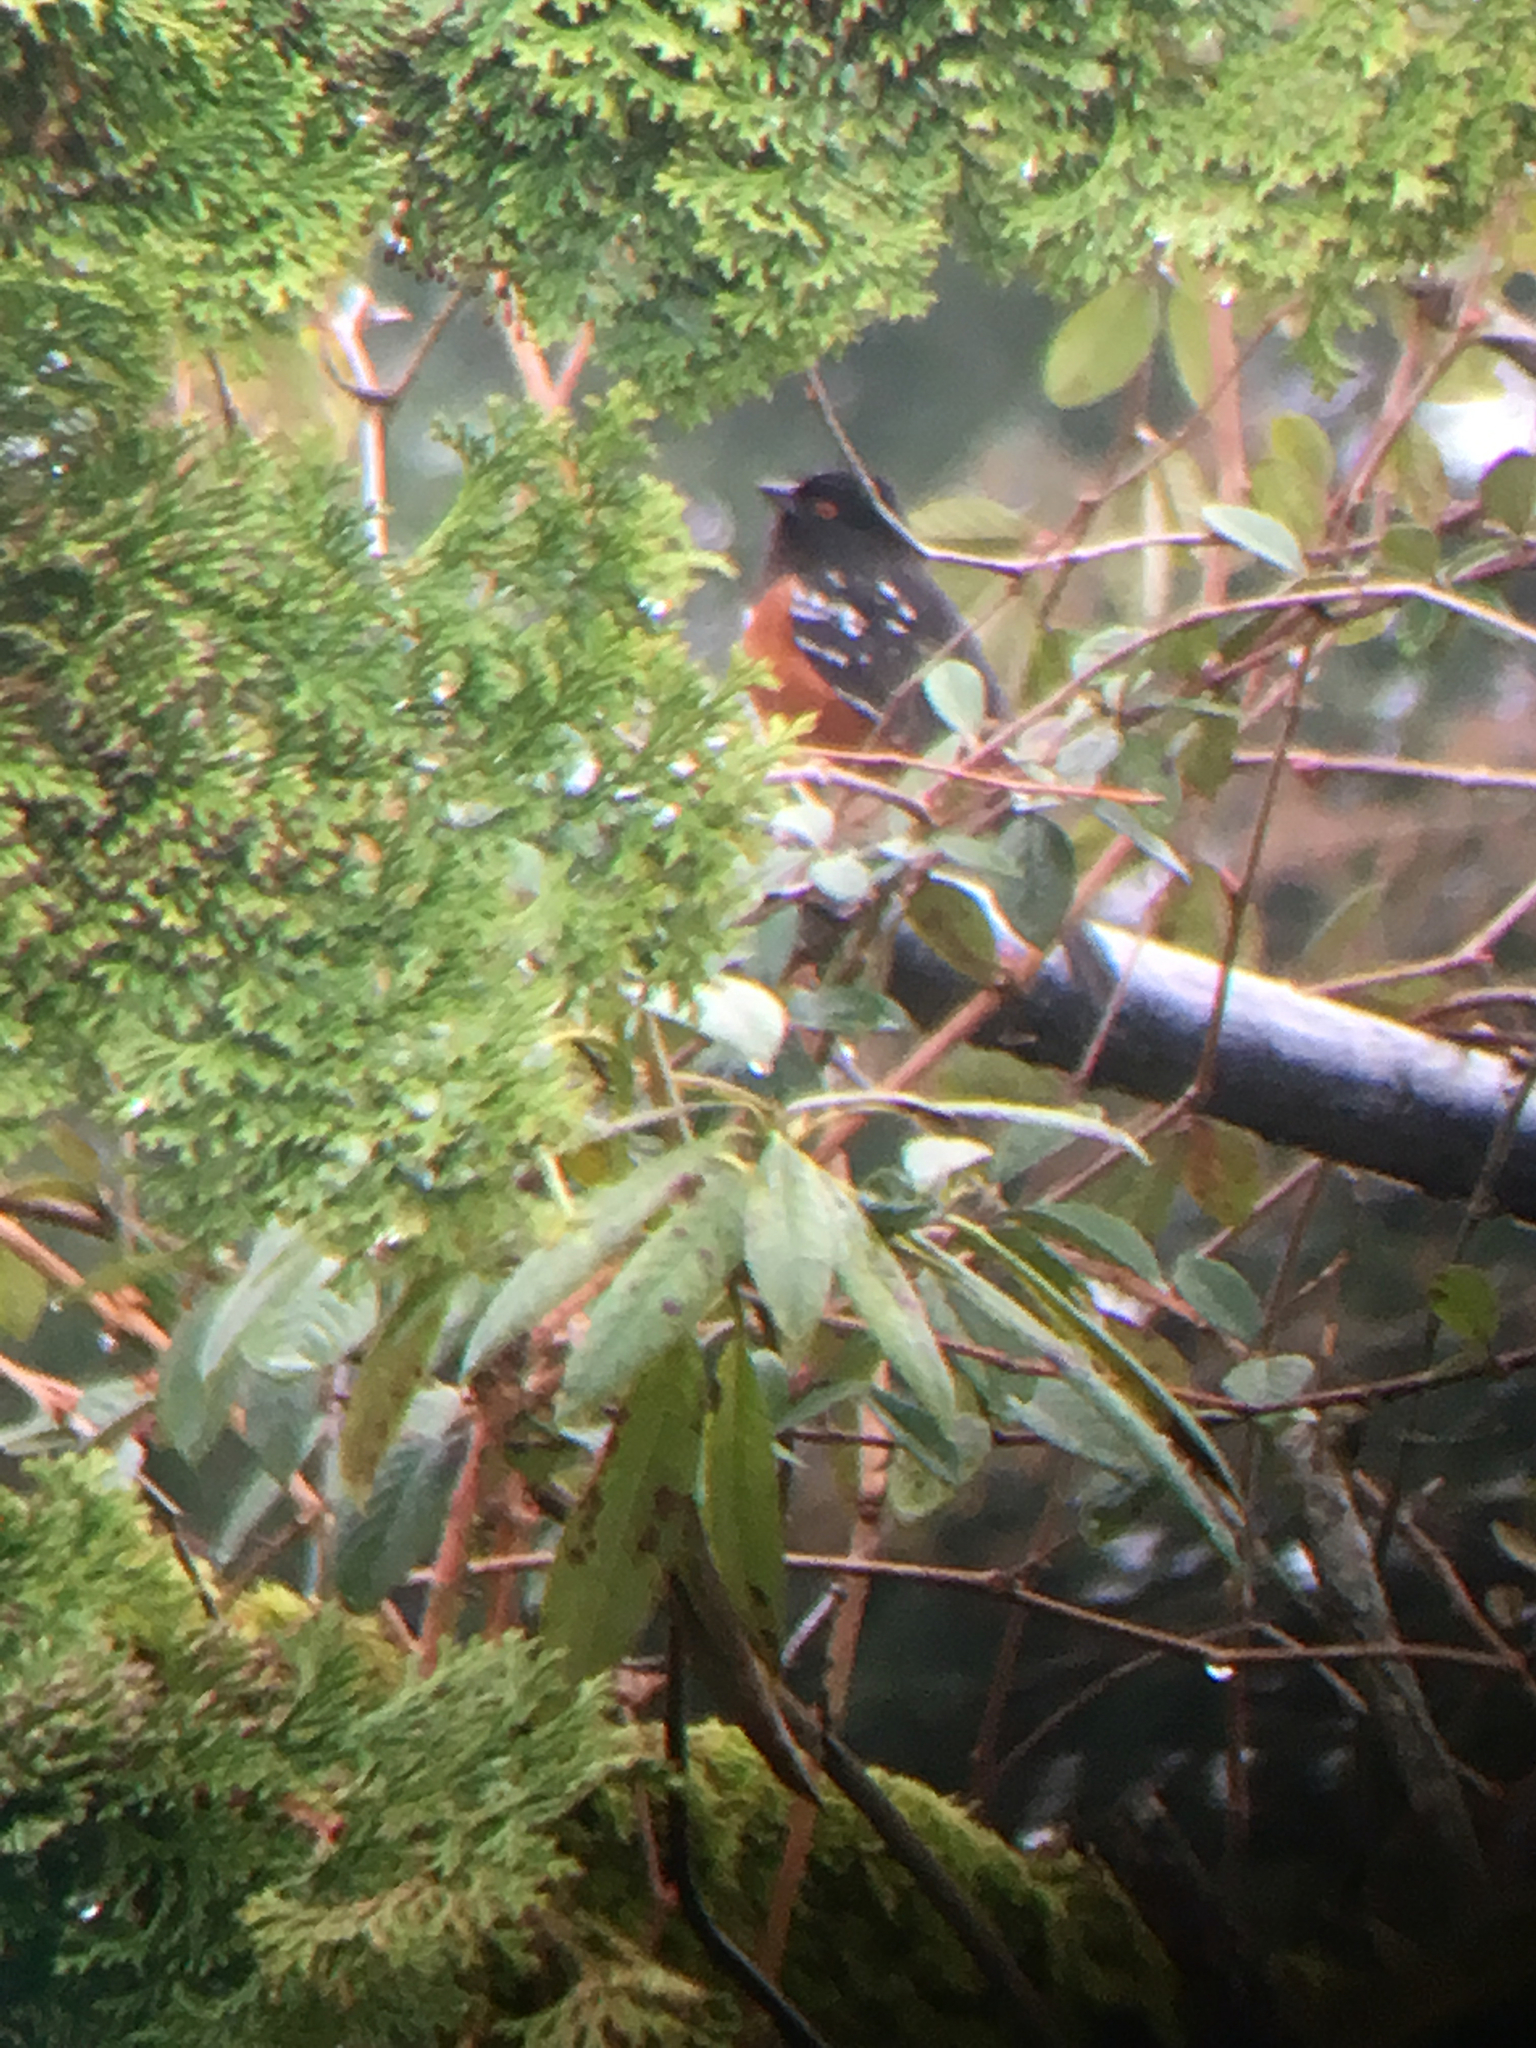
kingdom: Animalia
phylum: Chordata
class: Aves
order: Passeriformes
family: Passerellidae
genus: Pipilo
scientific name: Pipilo maculatus
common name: Spotted towhee
